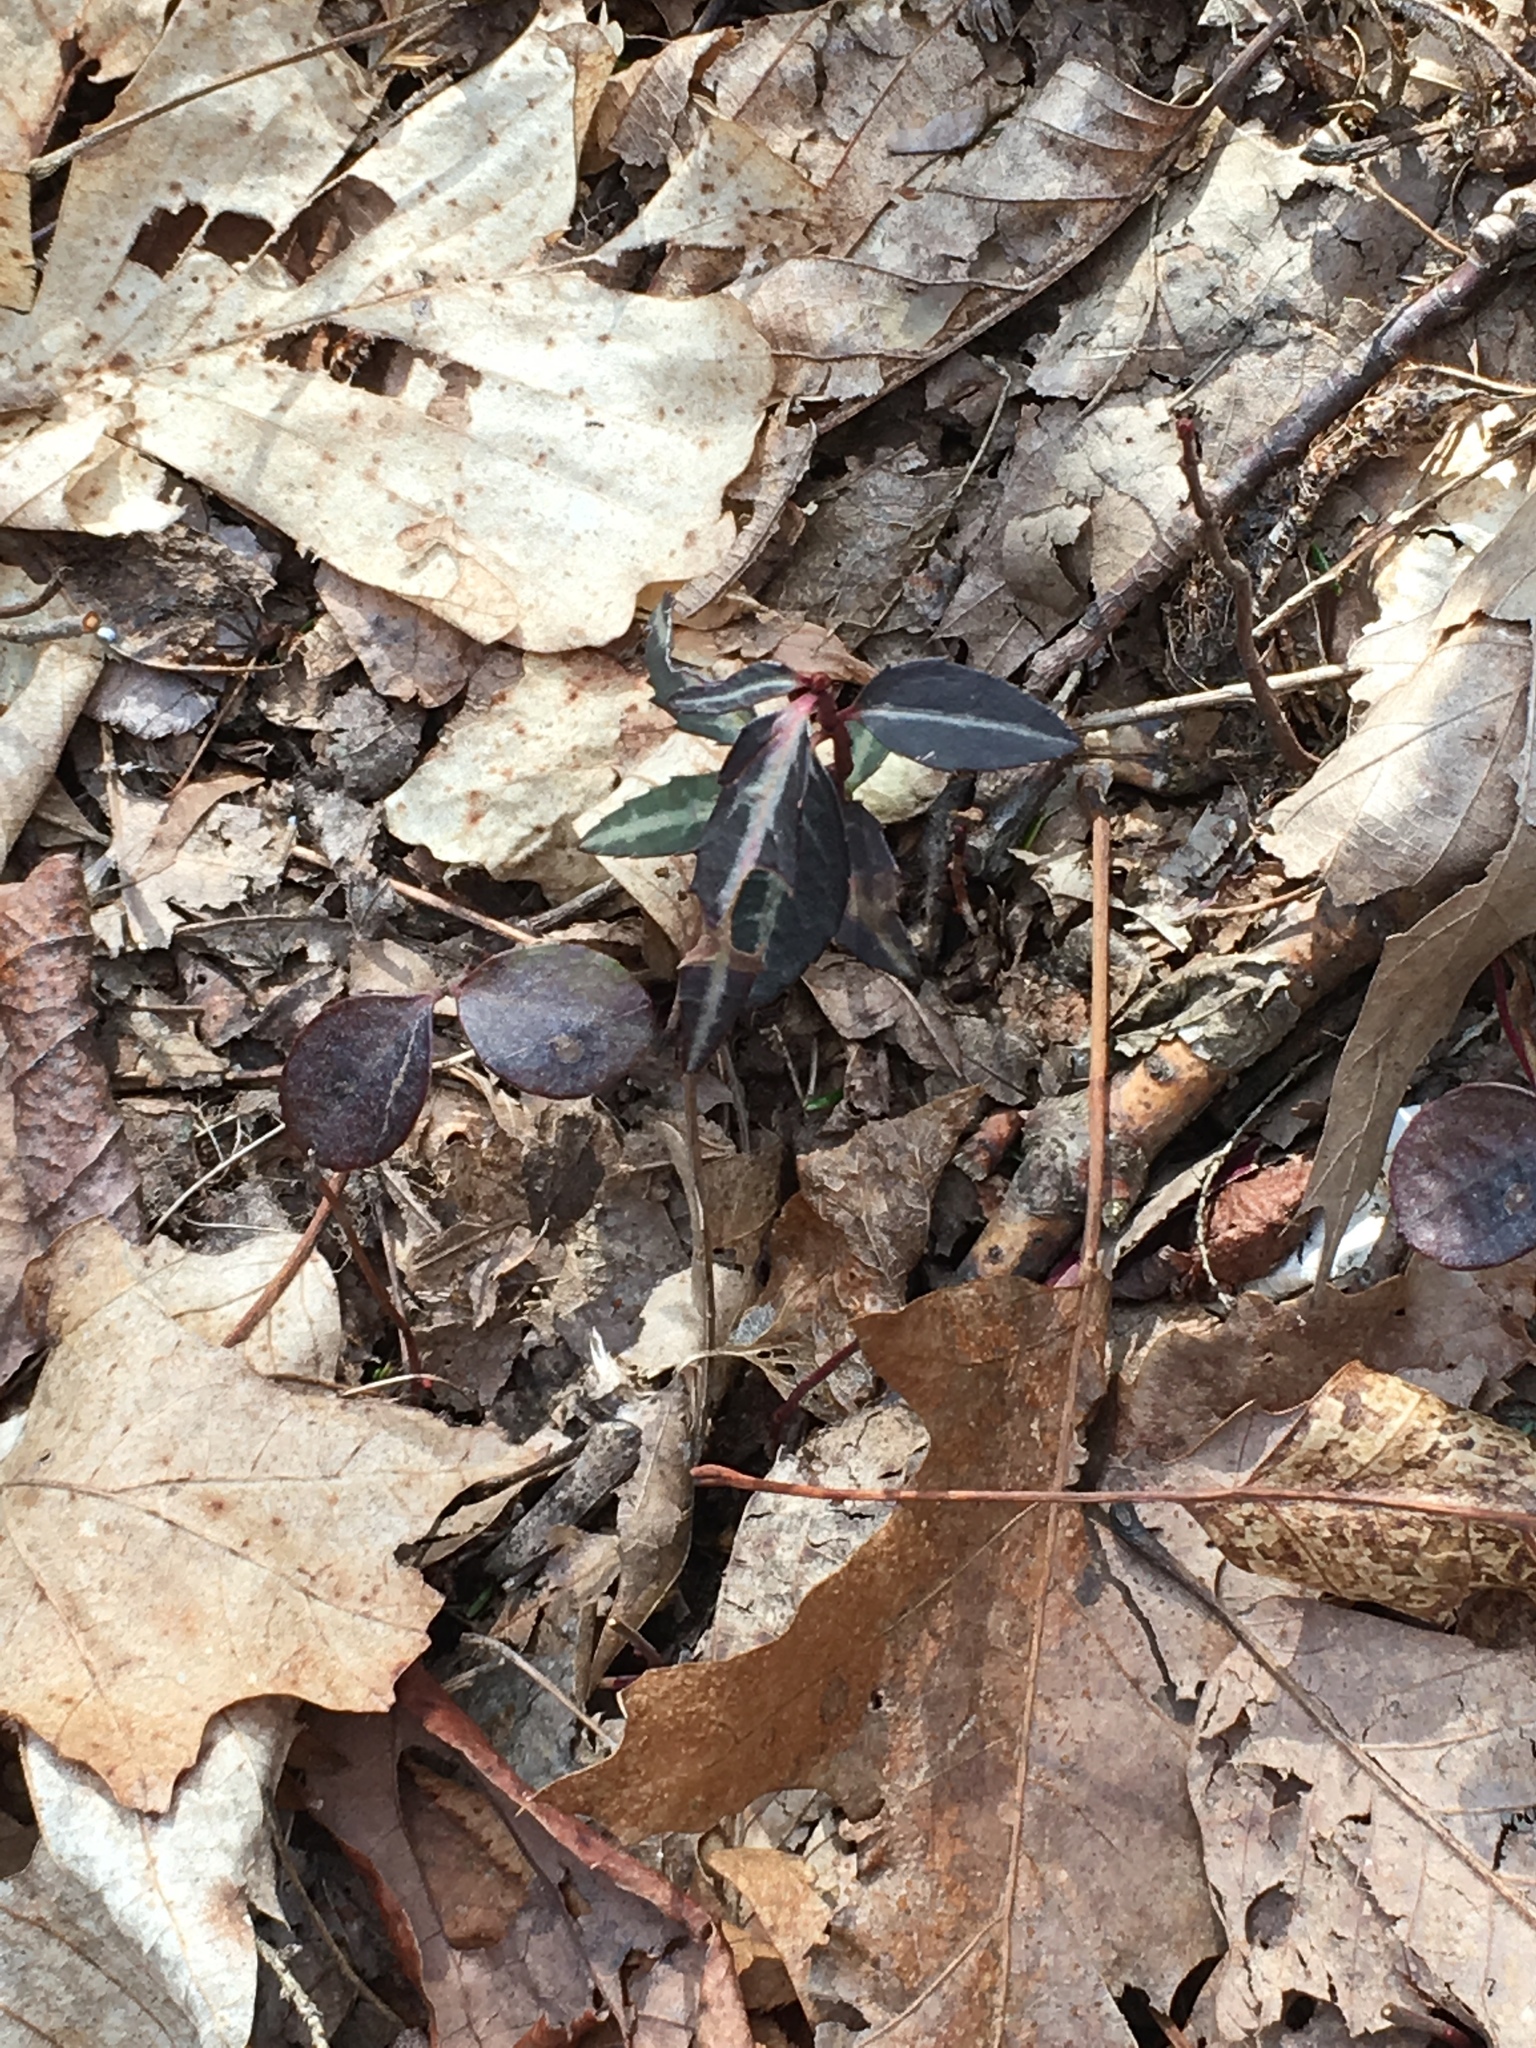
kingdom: Plantae
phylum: Tracheophyta
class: Magnoliopsida
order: Ericales
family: Ericaceae
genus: Chimaphila
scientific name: Chimaphila maculata
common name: Spotted pipsissewa
